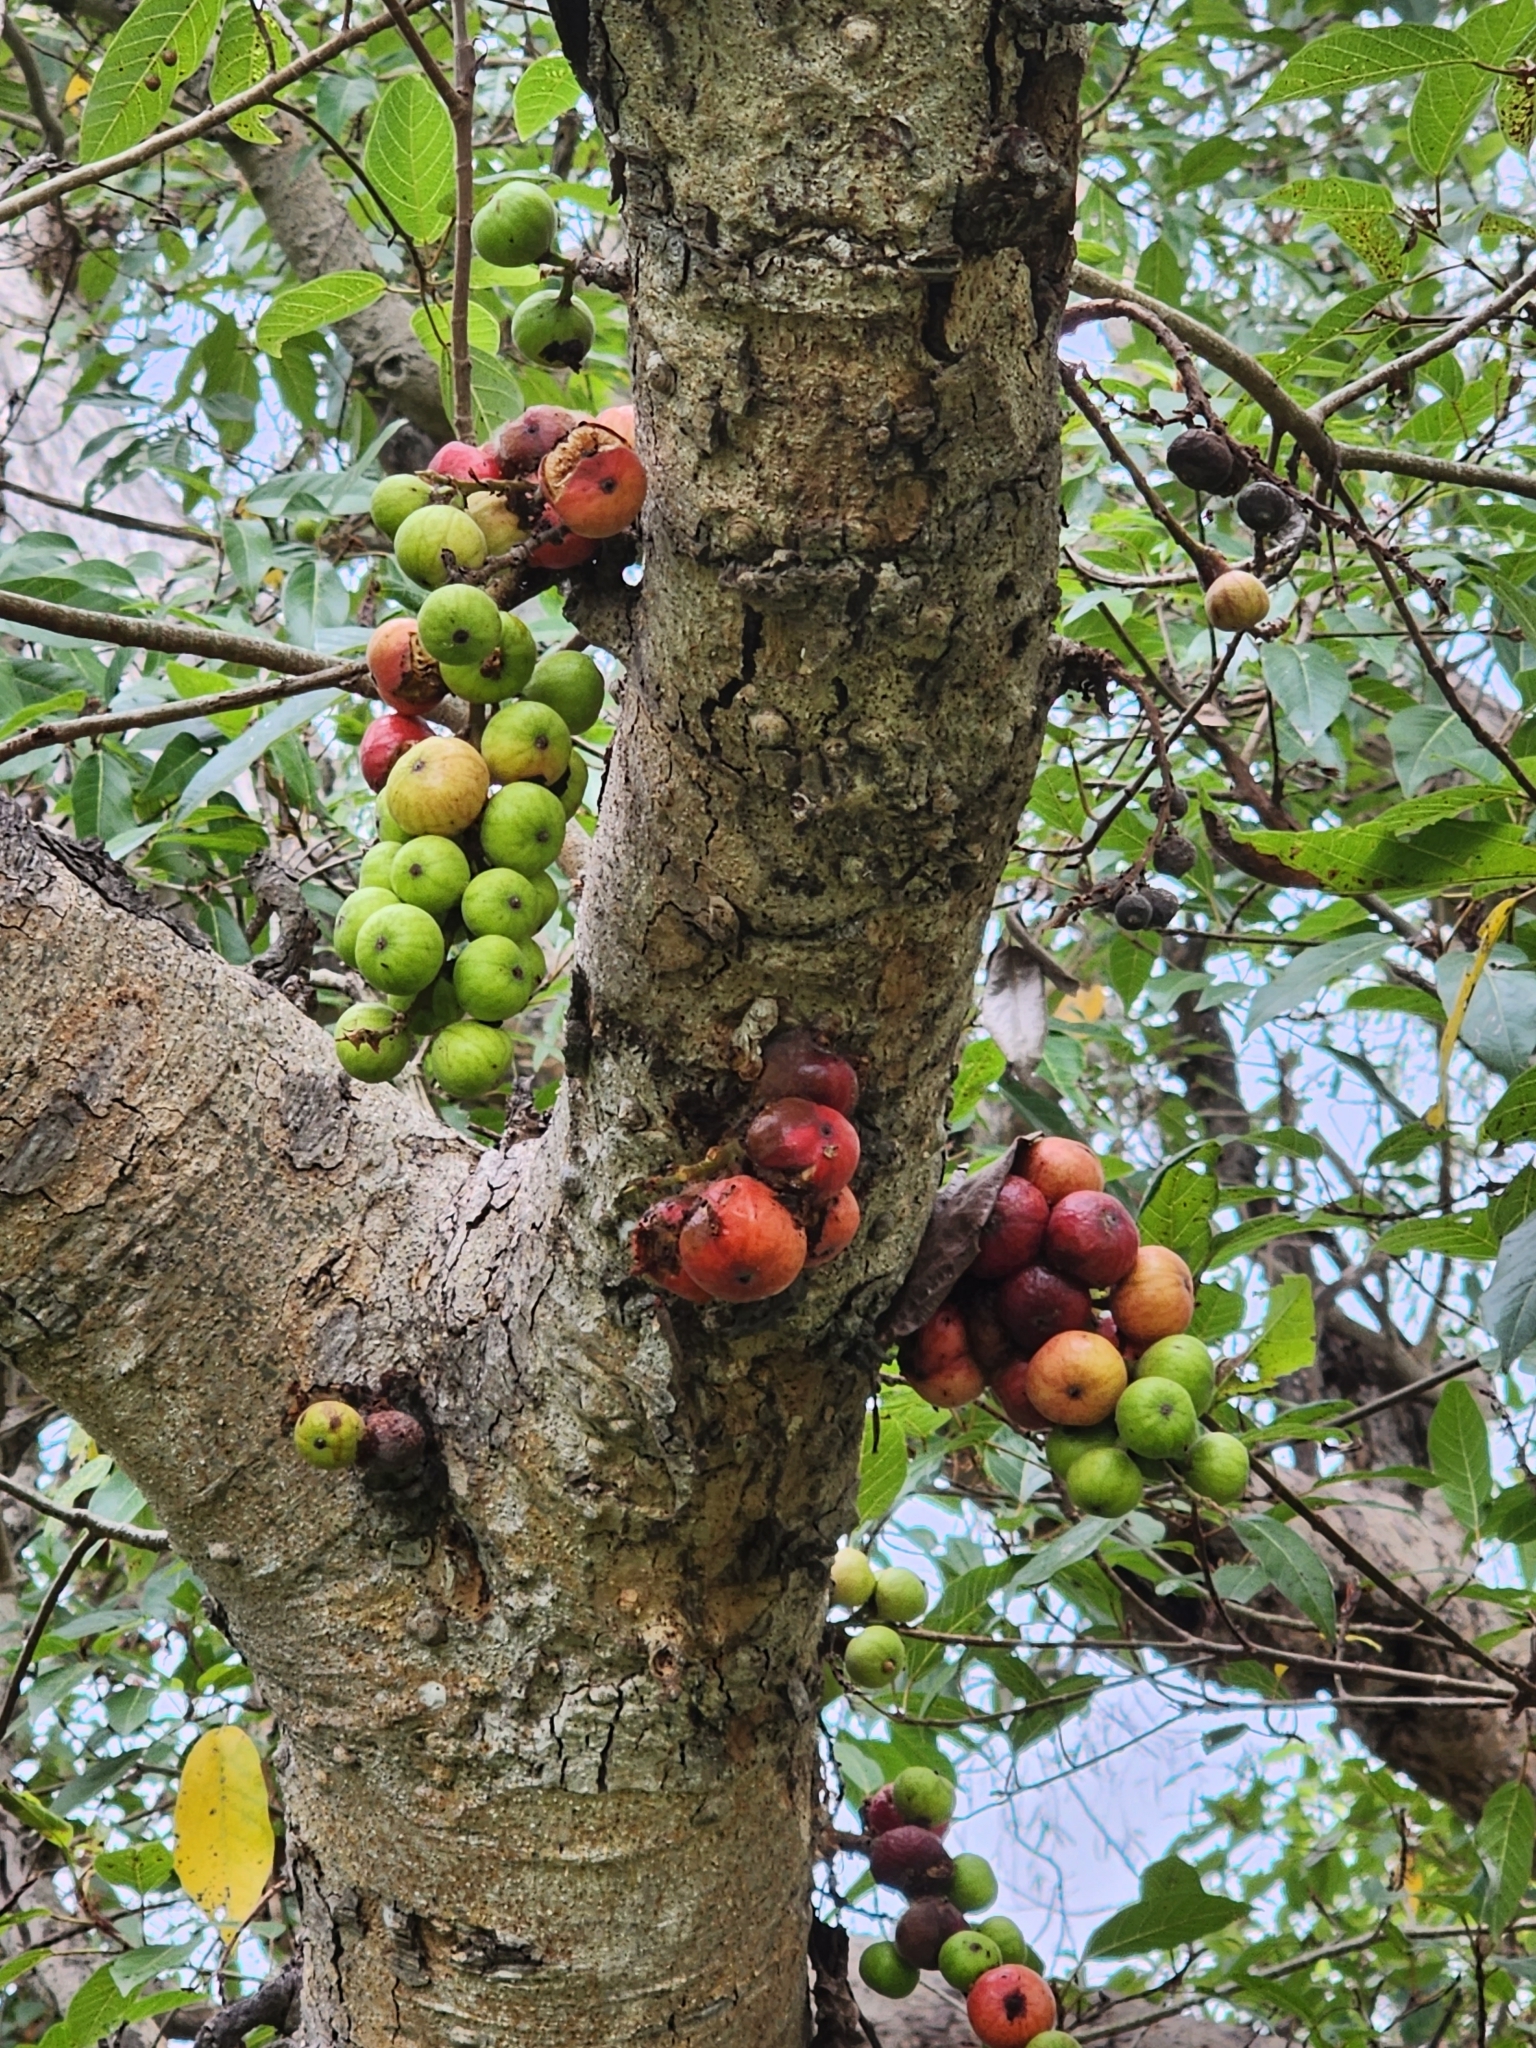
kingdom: Plantae
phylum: Tracheophyta
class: Magnoliopsida
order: Rosales
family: Moraceae
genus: Ficus
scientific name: Ficus racemosa
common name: Cluster fig
